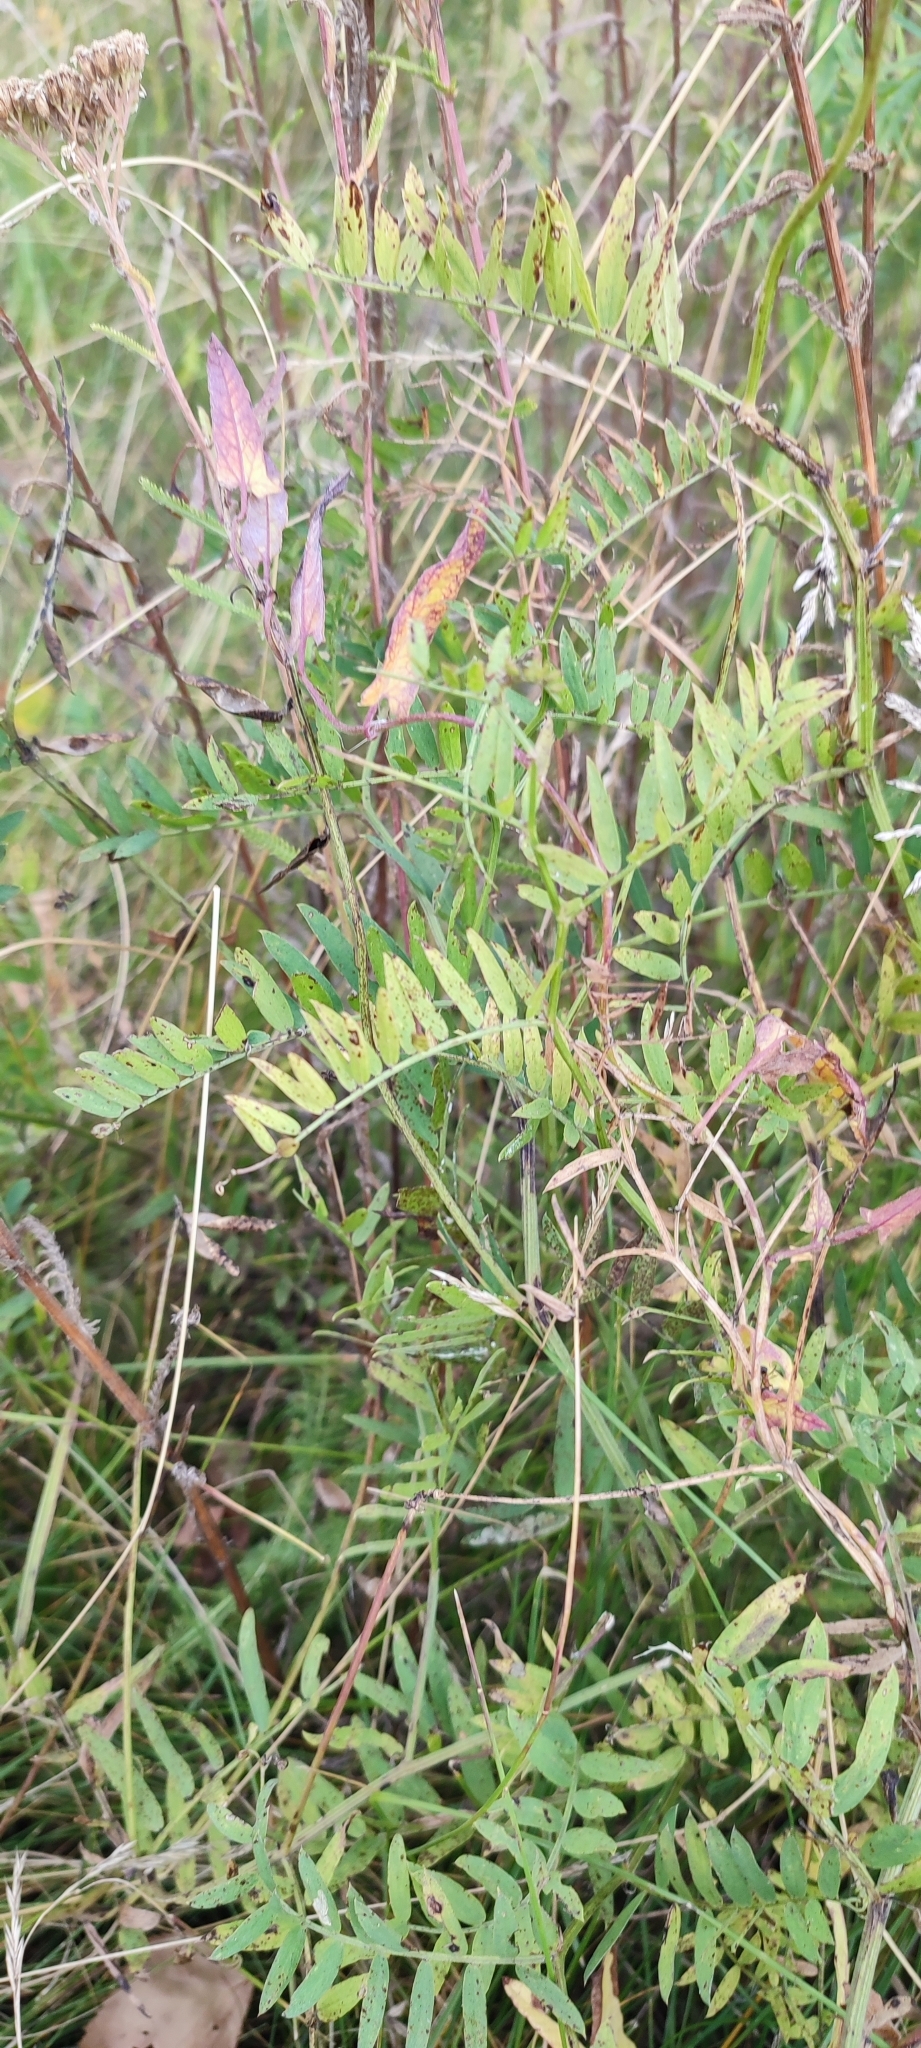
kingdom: Plantae
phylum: Tracheophyta
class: Magnoliopsida
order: Fabales
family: Fabaceae
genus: Vicia
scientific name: Vicia cracca
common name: Bird vetch
